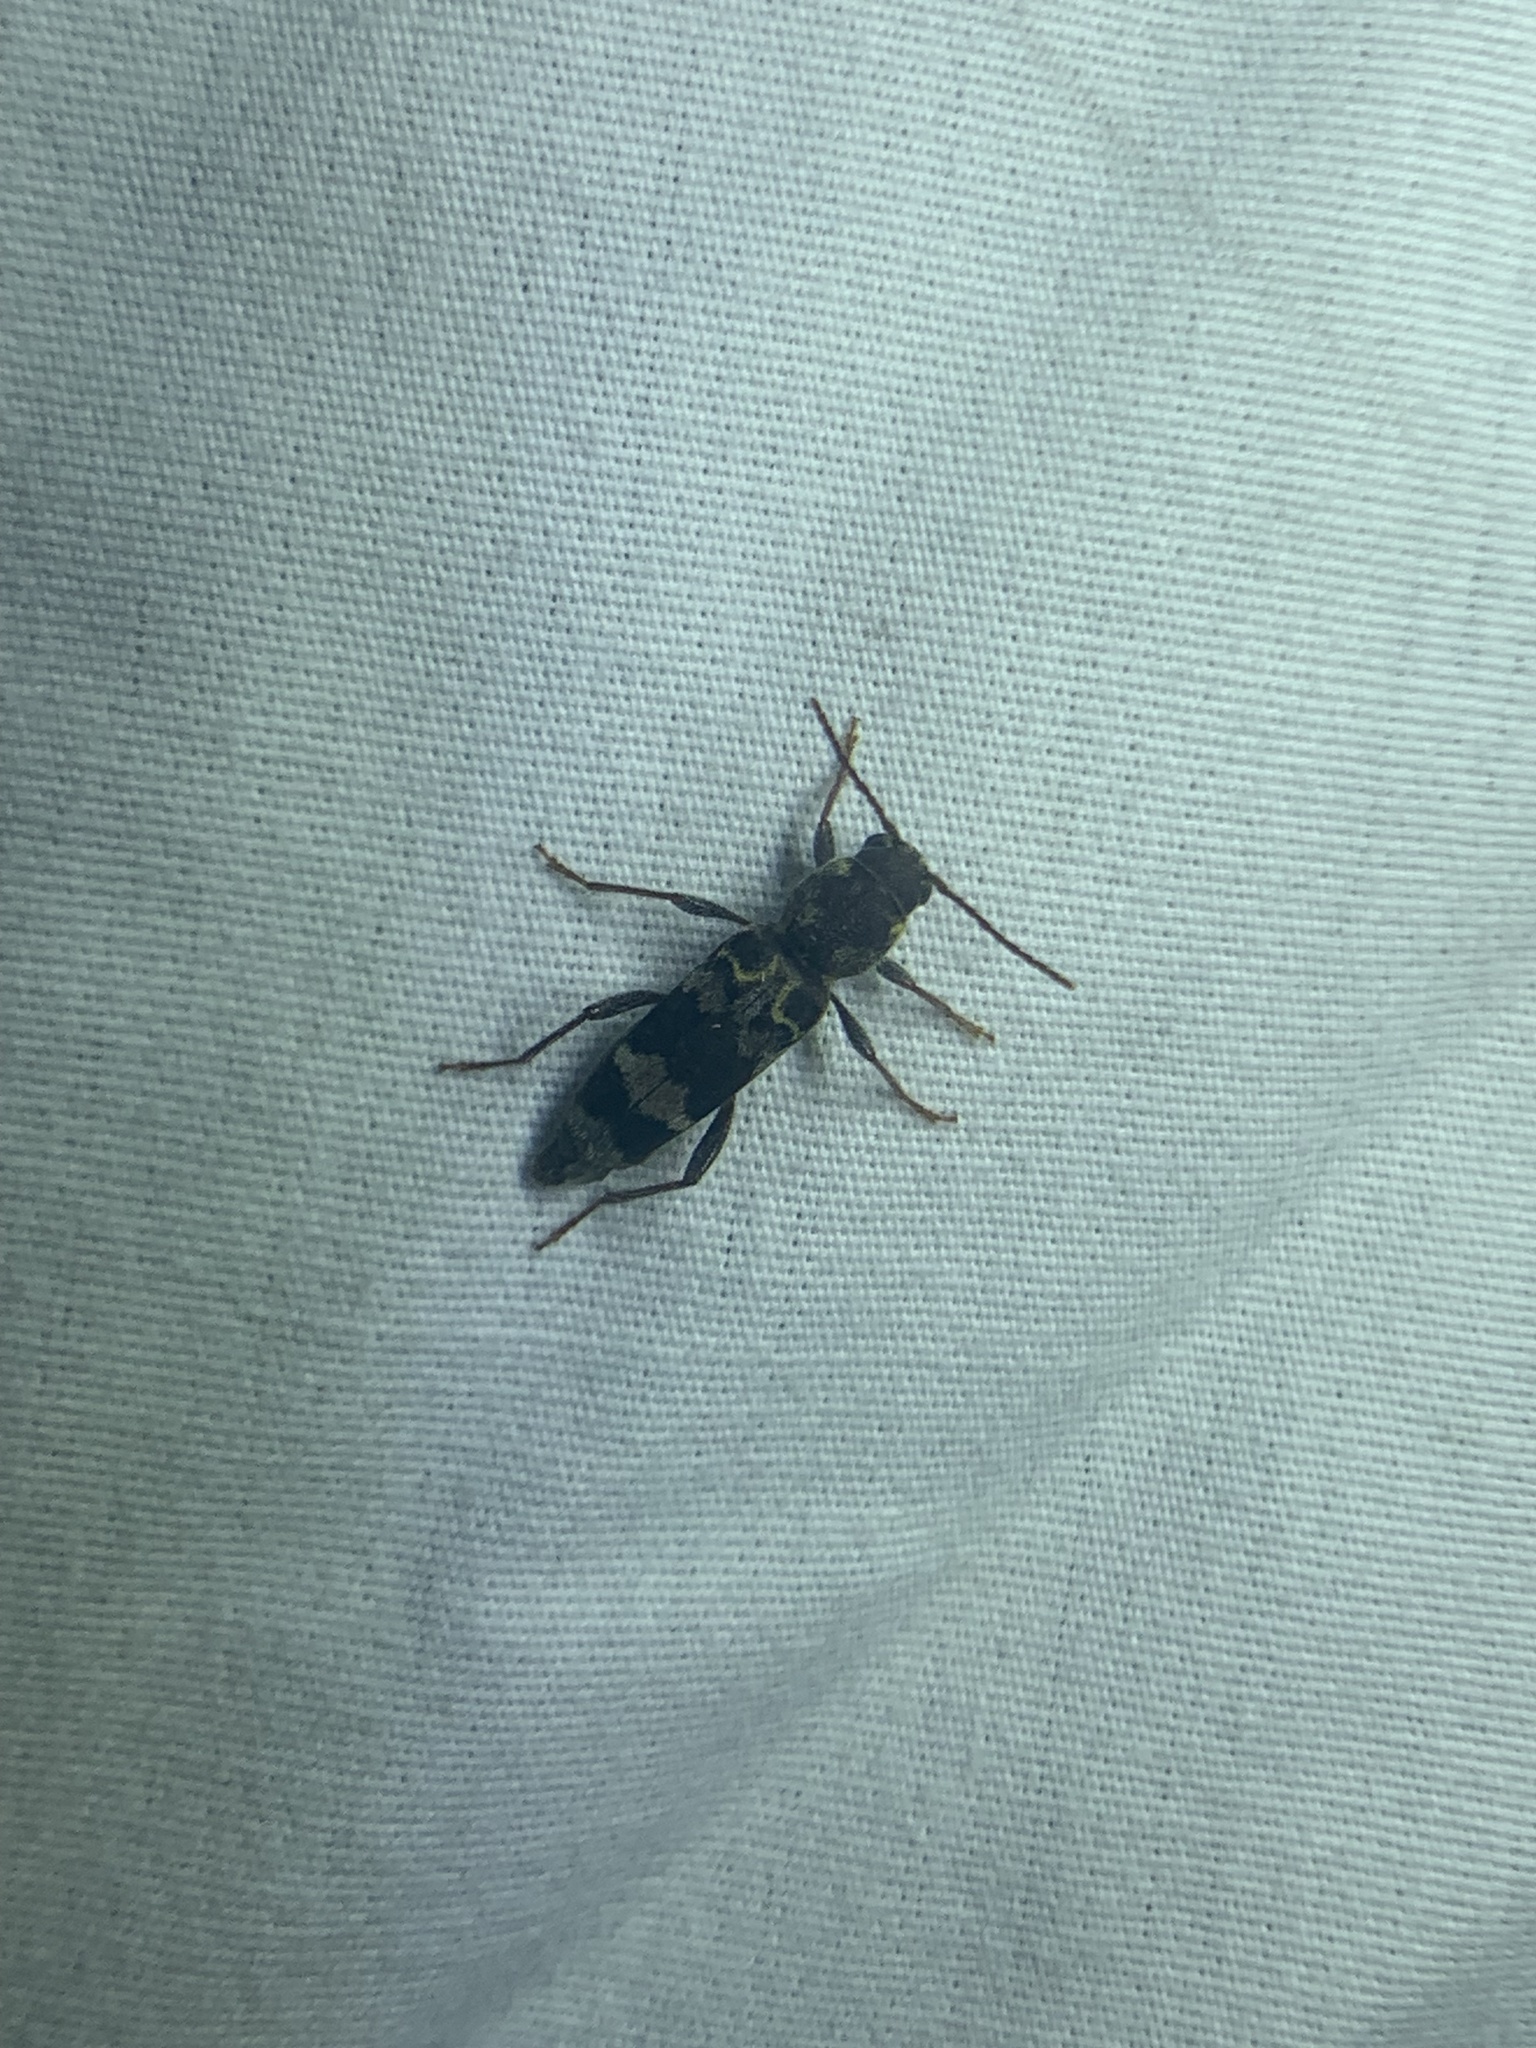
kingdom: Animalia
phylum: Arthropoda
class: Insecta
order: Coleoptera
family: Cerambycidae
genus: Xylotrechus
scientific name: Xylotrechus colonus
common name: Long-horned beetle
